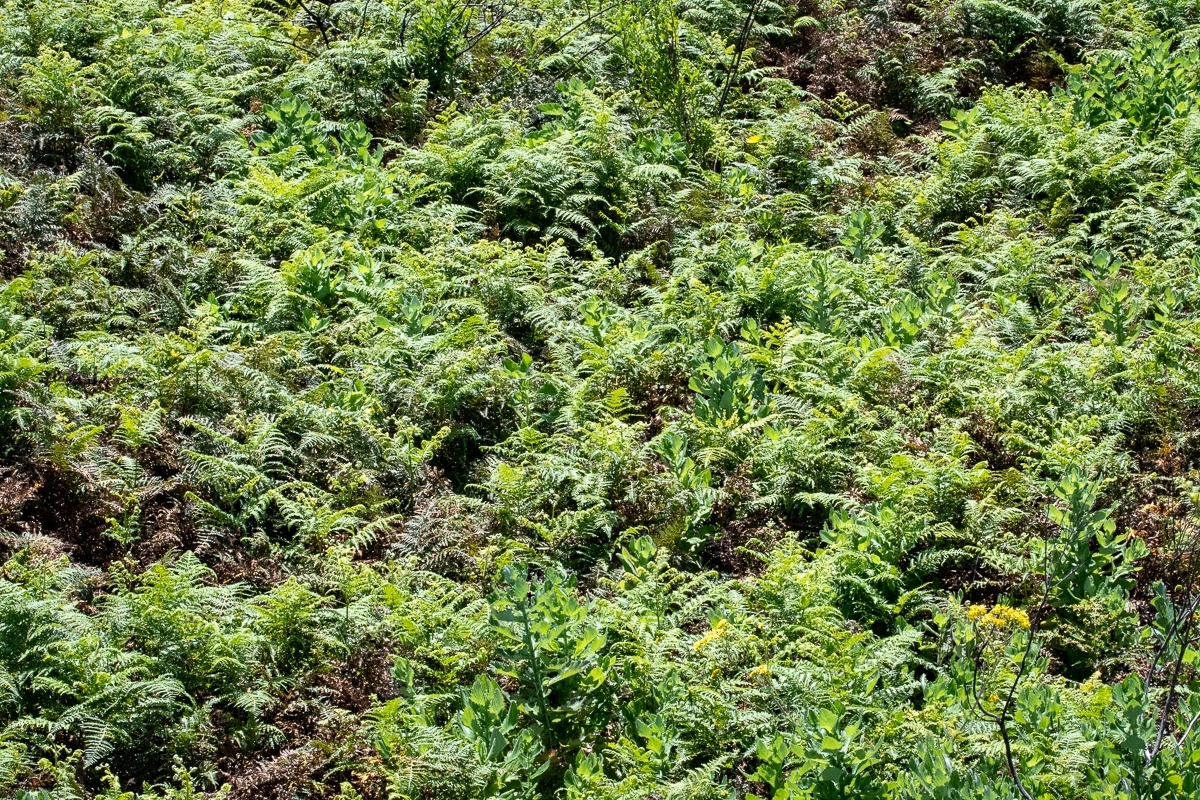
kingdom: Plantae
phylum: Tracheophyta
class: Polypodiopsida
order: Polypodiales
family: Dennstaedtiaceae
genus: Pteridium
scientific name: Pteridium aquilinum
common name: Bracken
